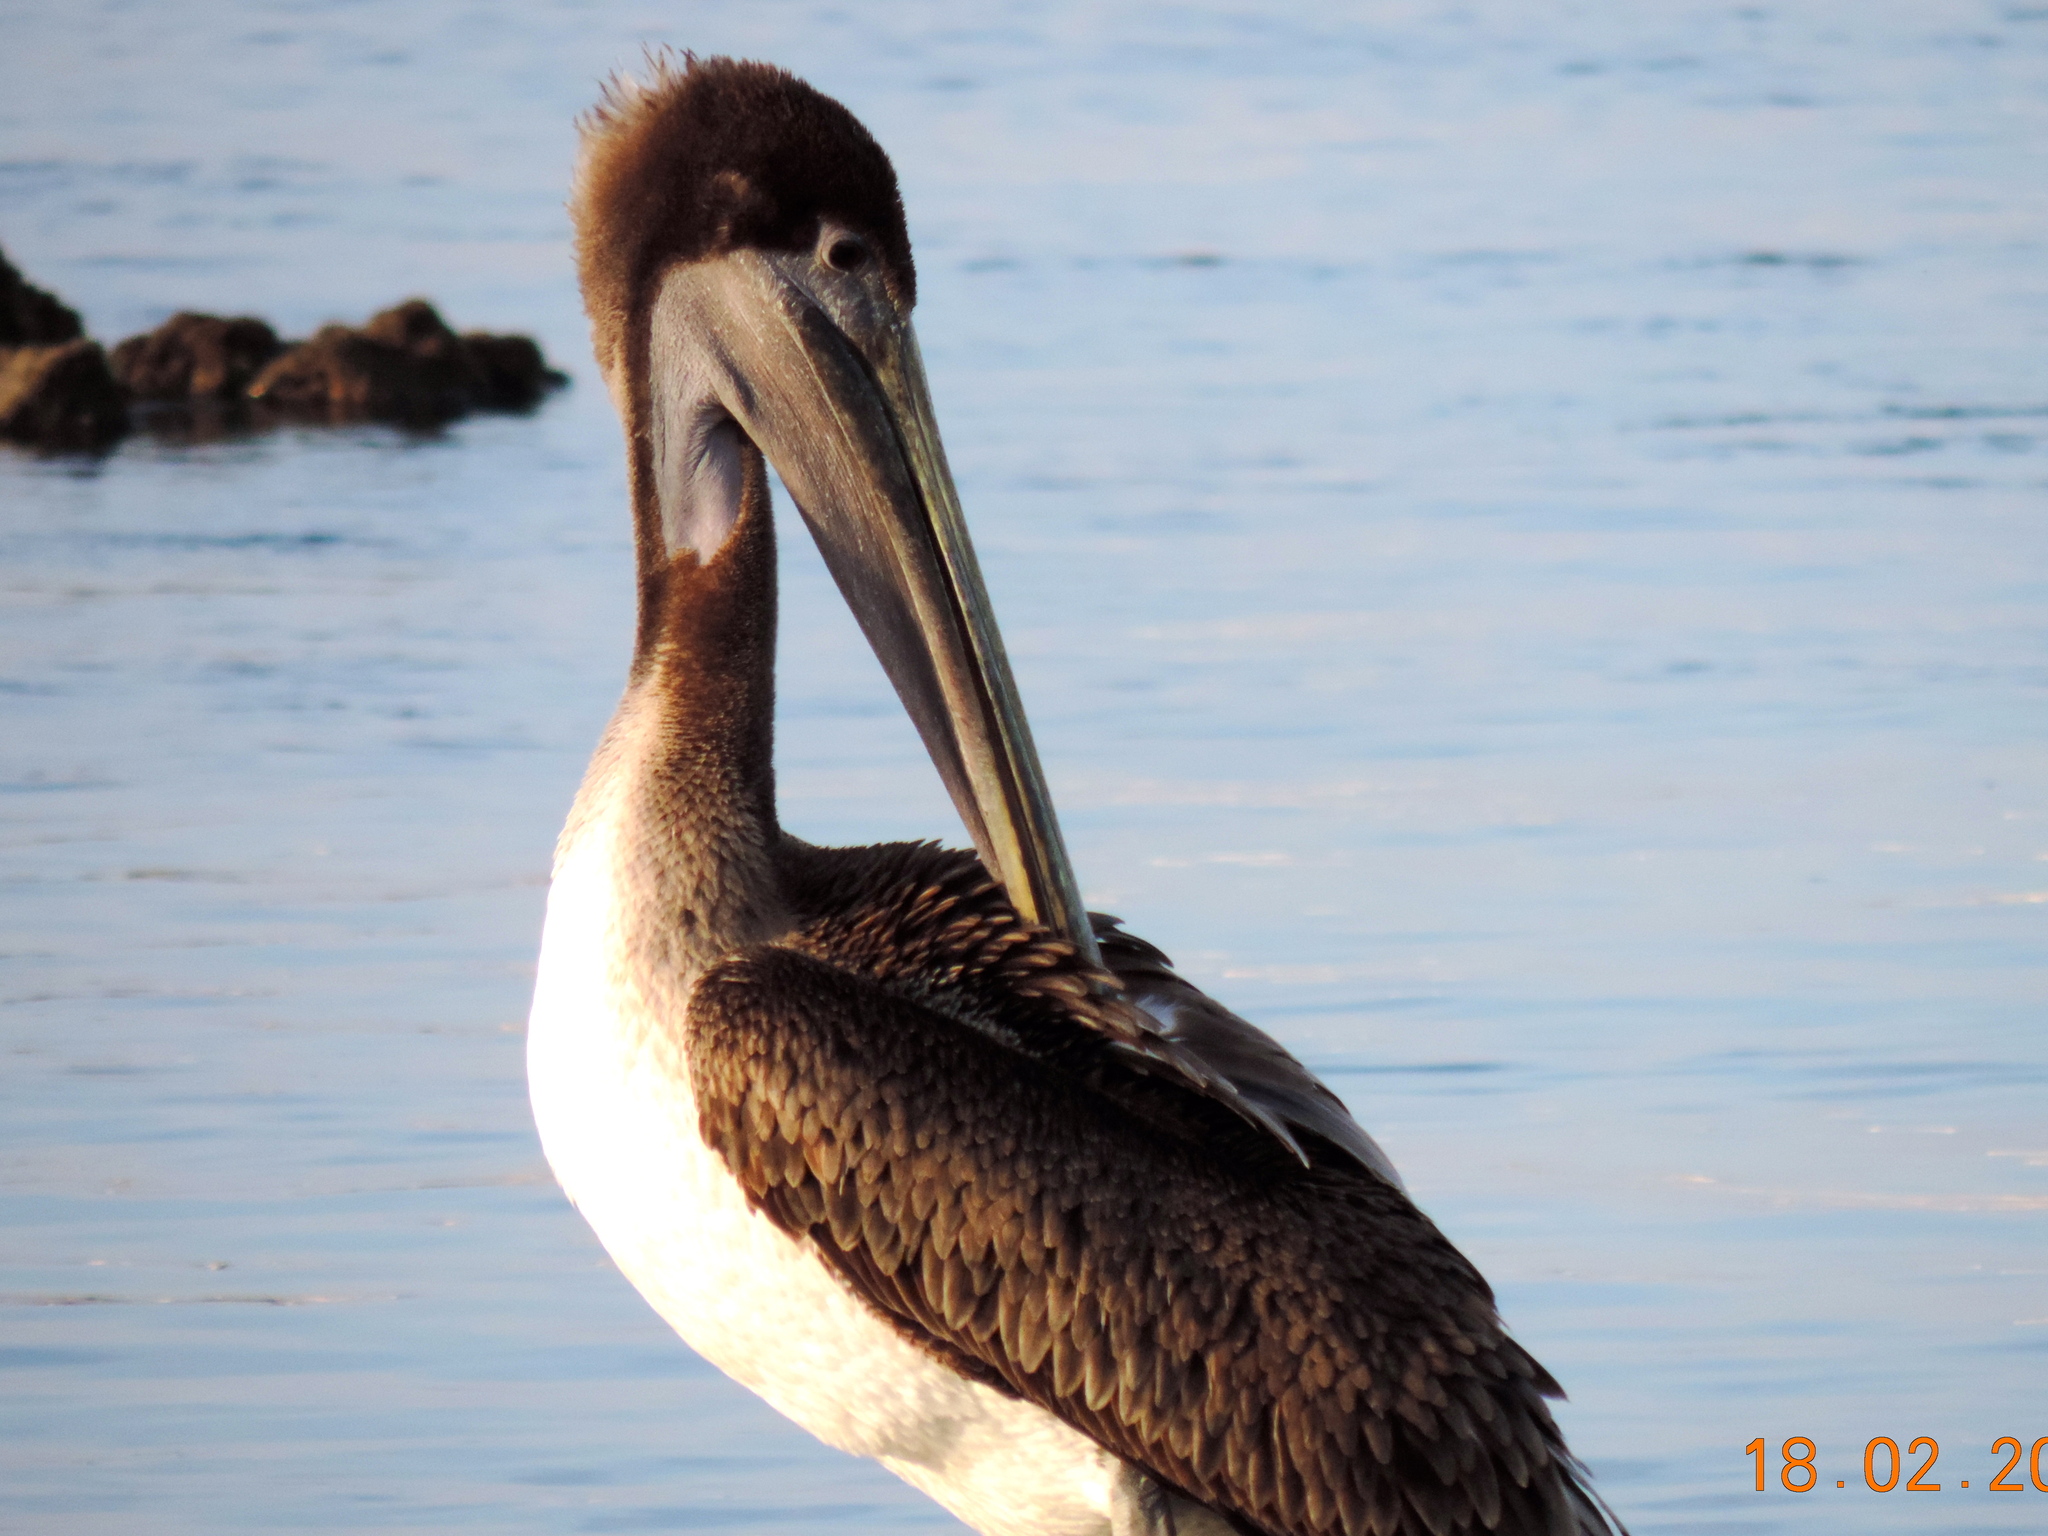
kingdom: Animalia
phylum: Chordata
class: Aves
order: Pelecaniformes
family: Pelecanidae
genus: Pelecanus
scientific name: Pelecanus occidentalis
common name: Brown pelican
